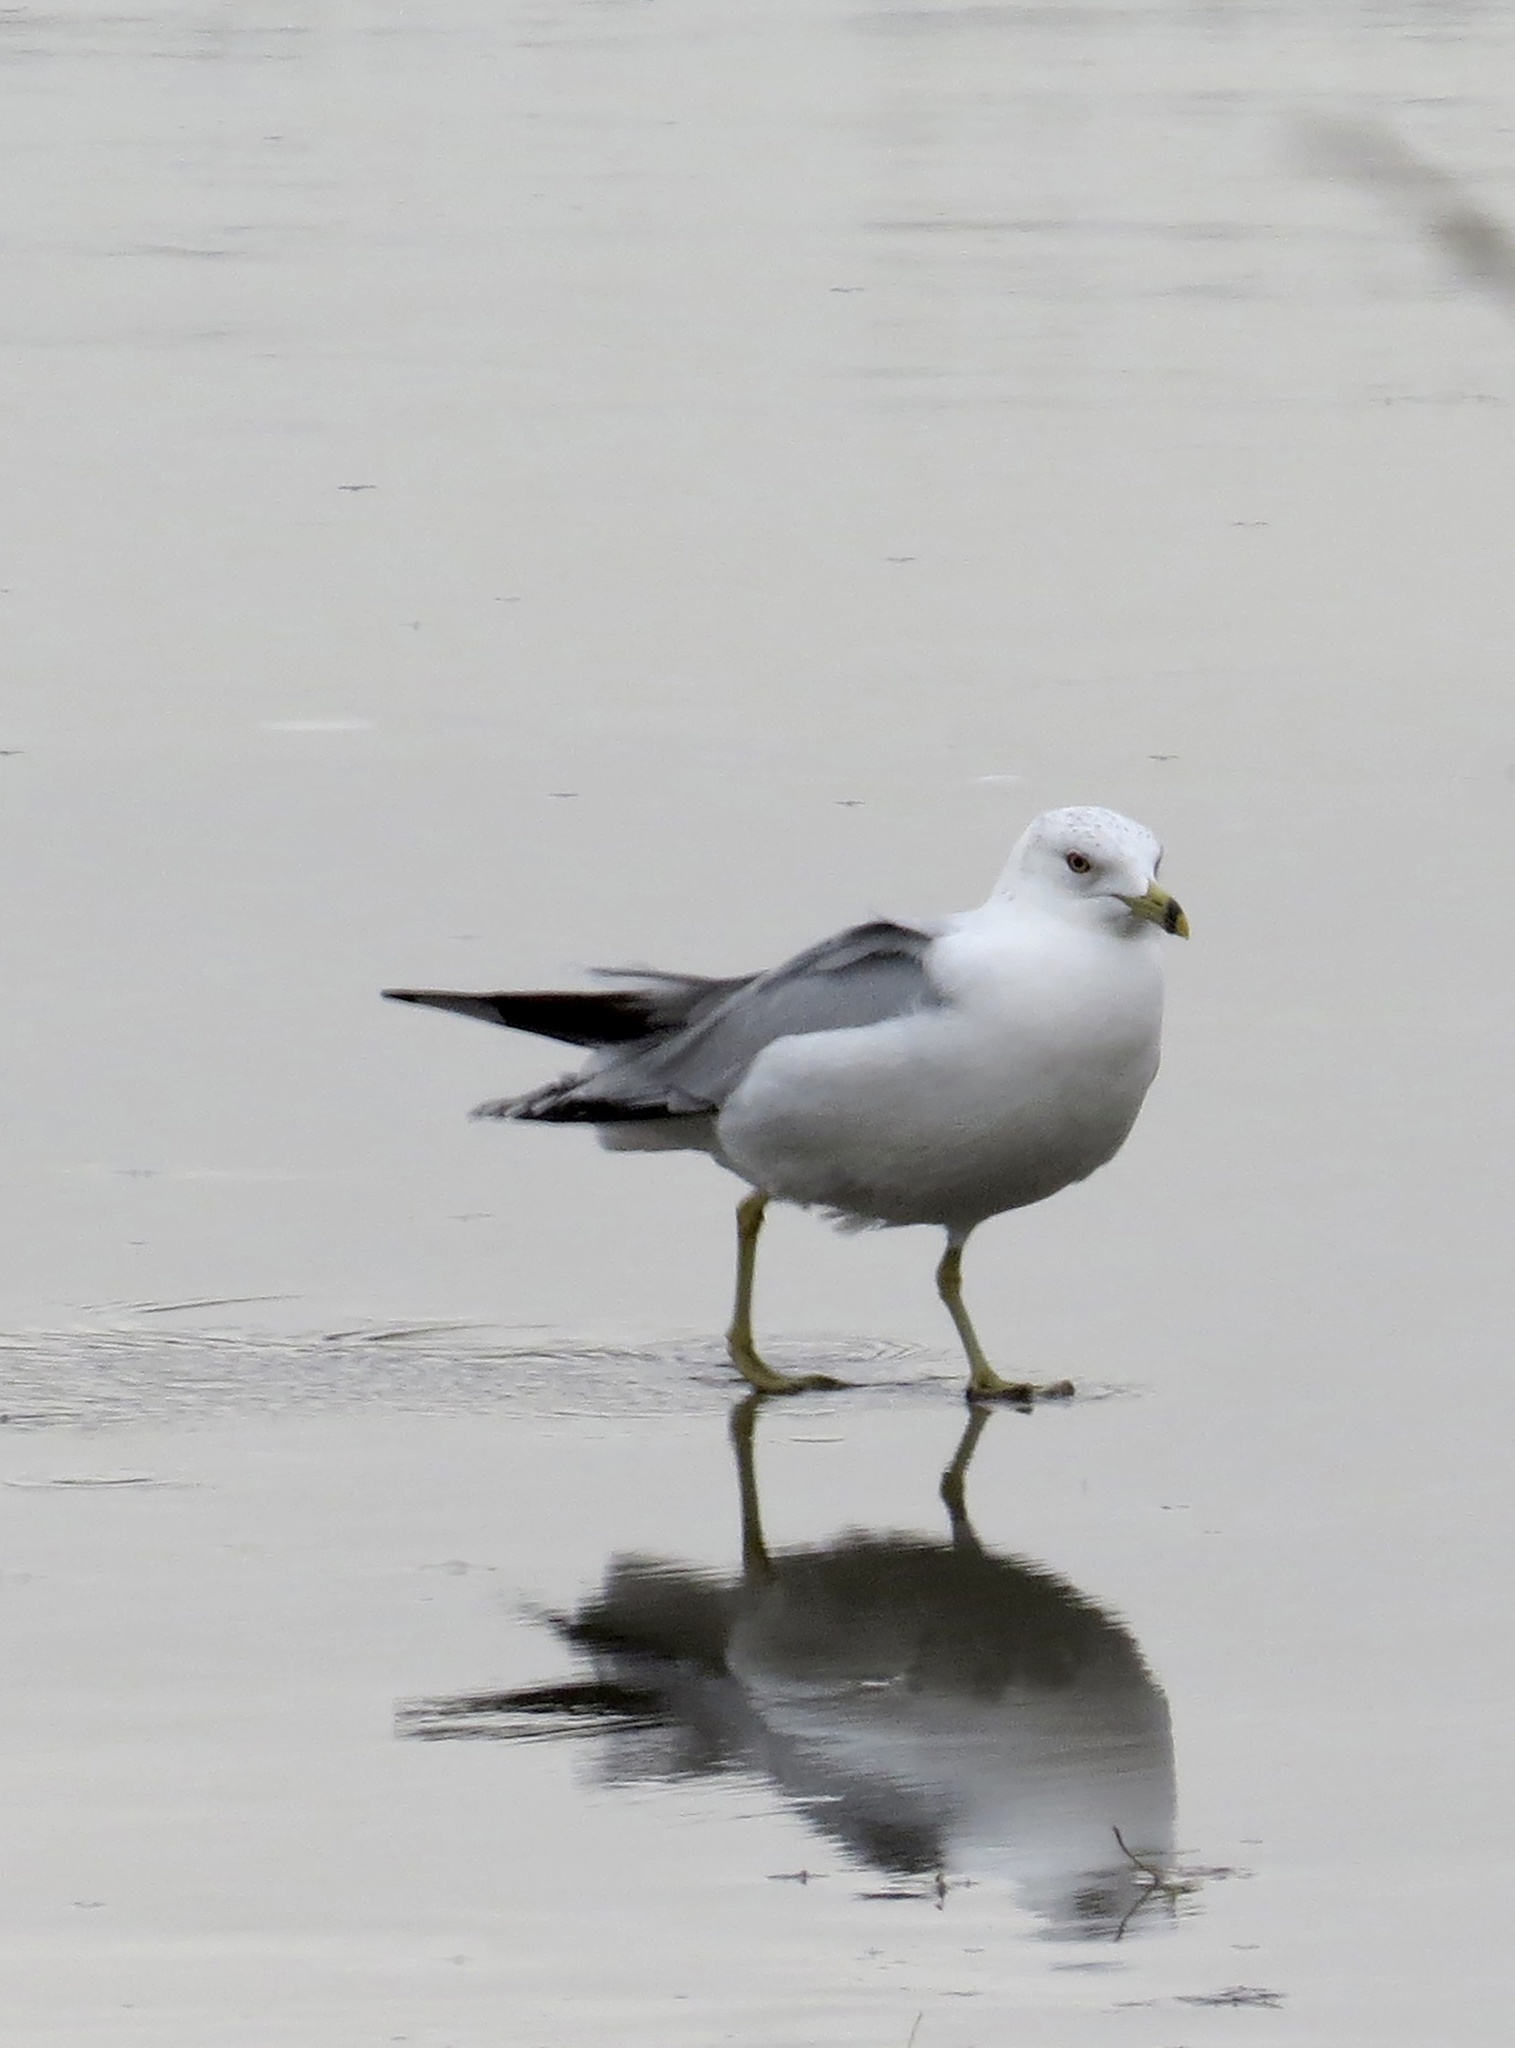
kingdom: Animalia
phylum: Chordata
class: Aves
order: Charadriiformes
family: Laridae
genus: Larus
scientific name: Larus delawarensis
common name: Ring-billed gull
